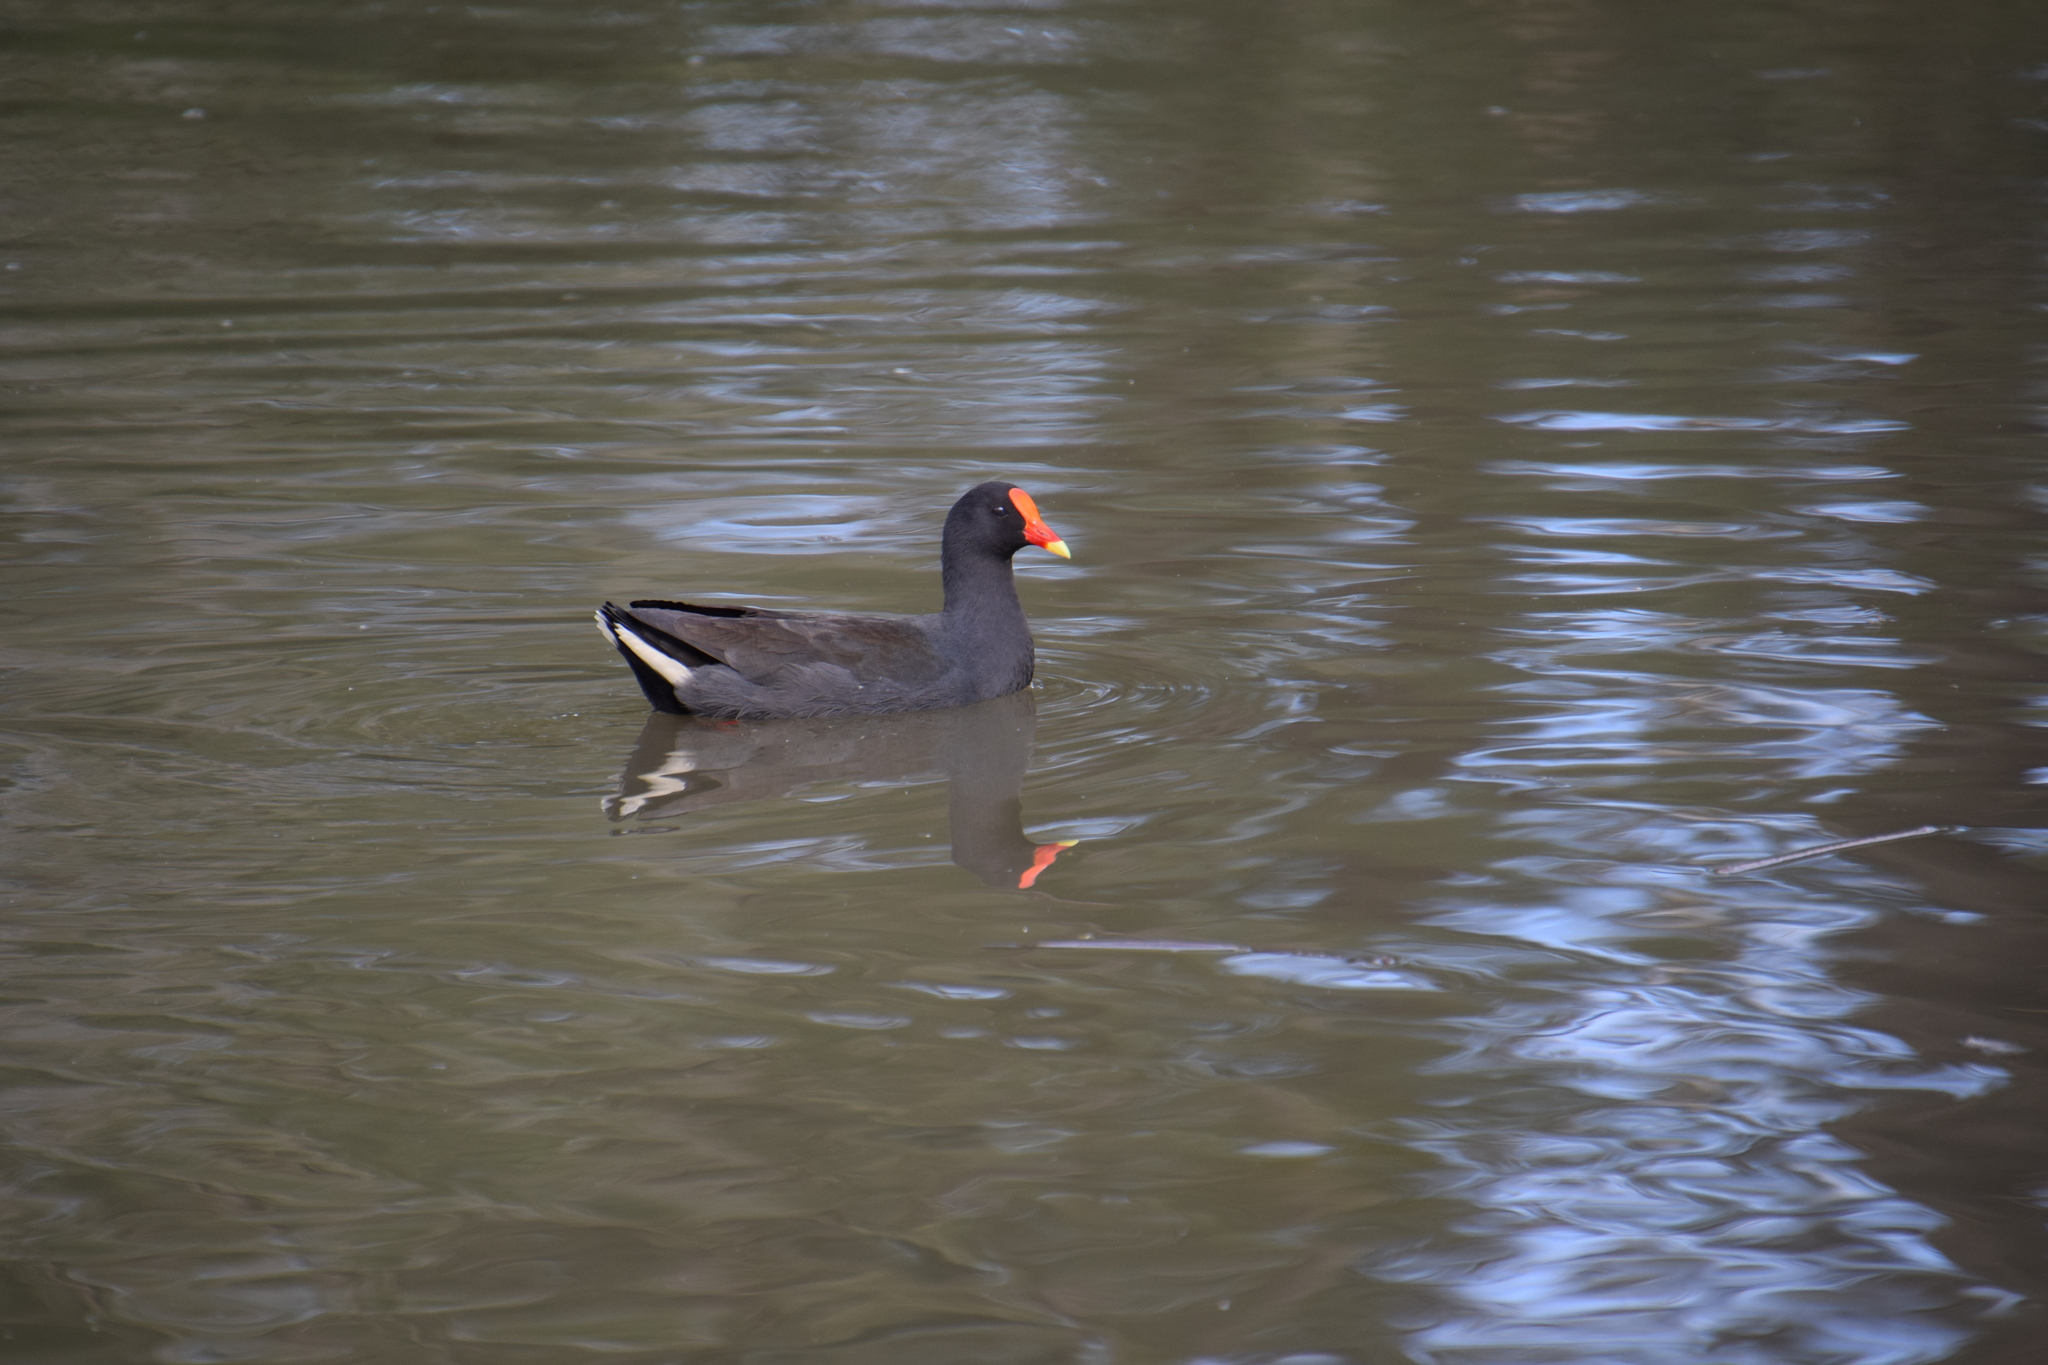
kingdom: Animalia
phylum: Chordata
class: Aves
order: Gruiformes
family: Rallidae
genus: Gallinula
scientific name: Gallinula tenebrosa
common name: Dusky moorhen
